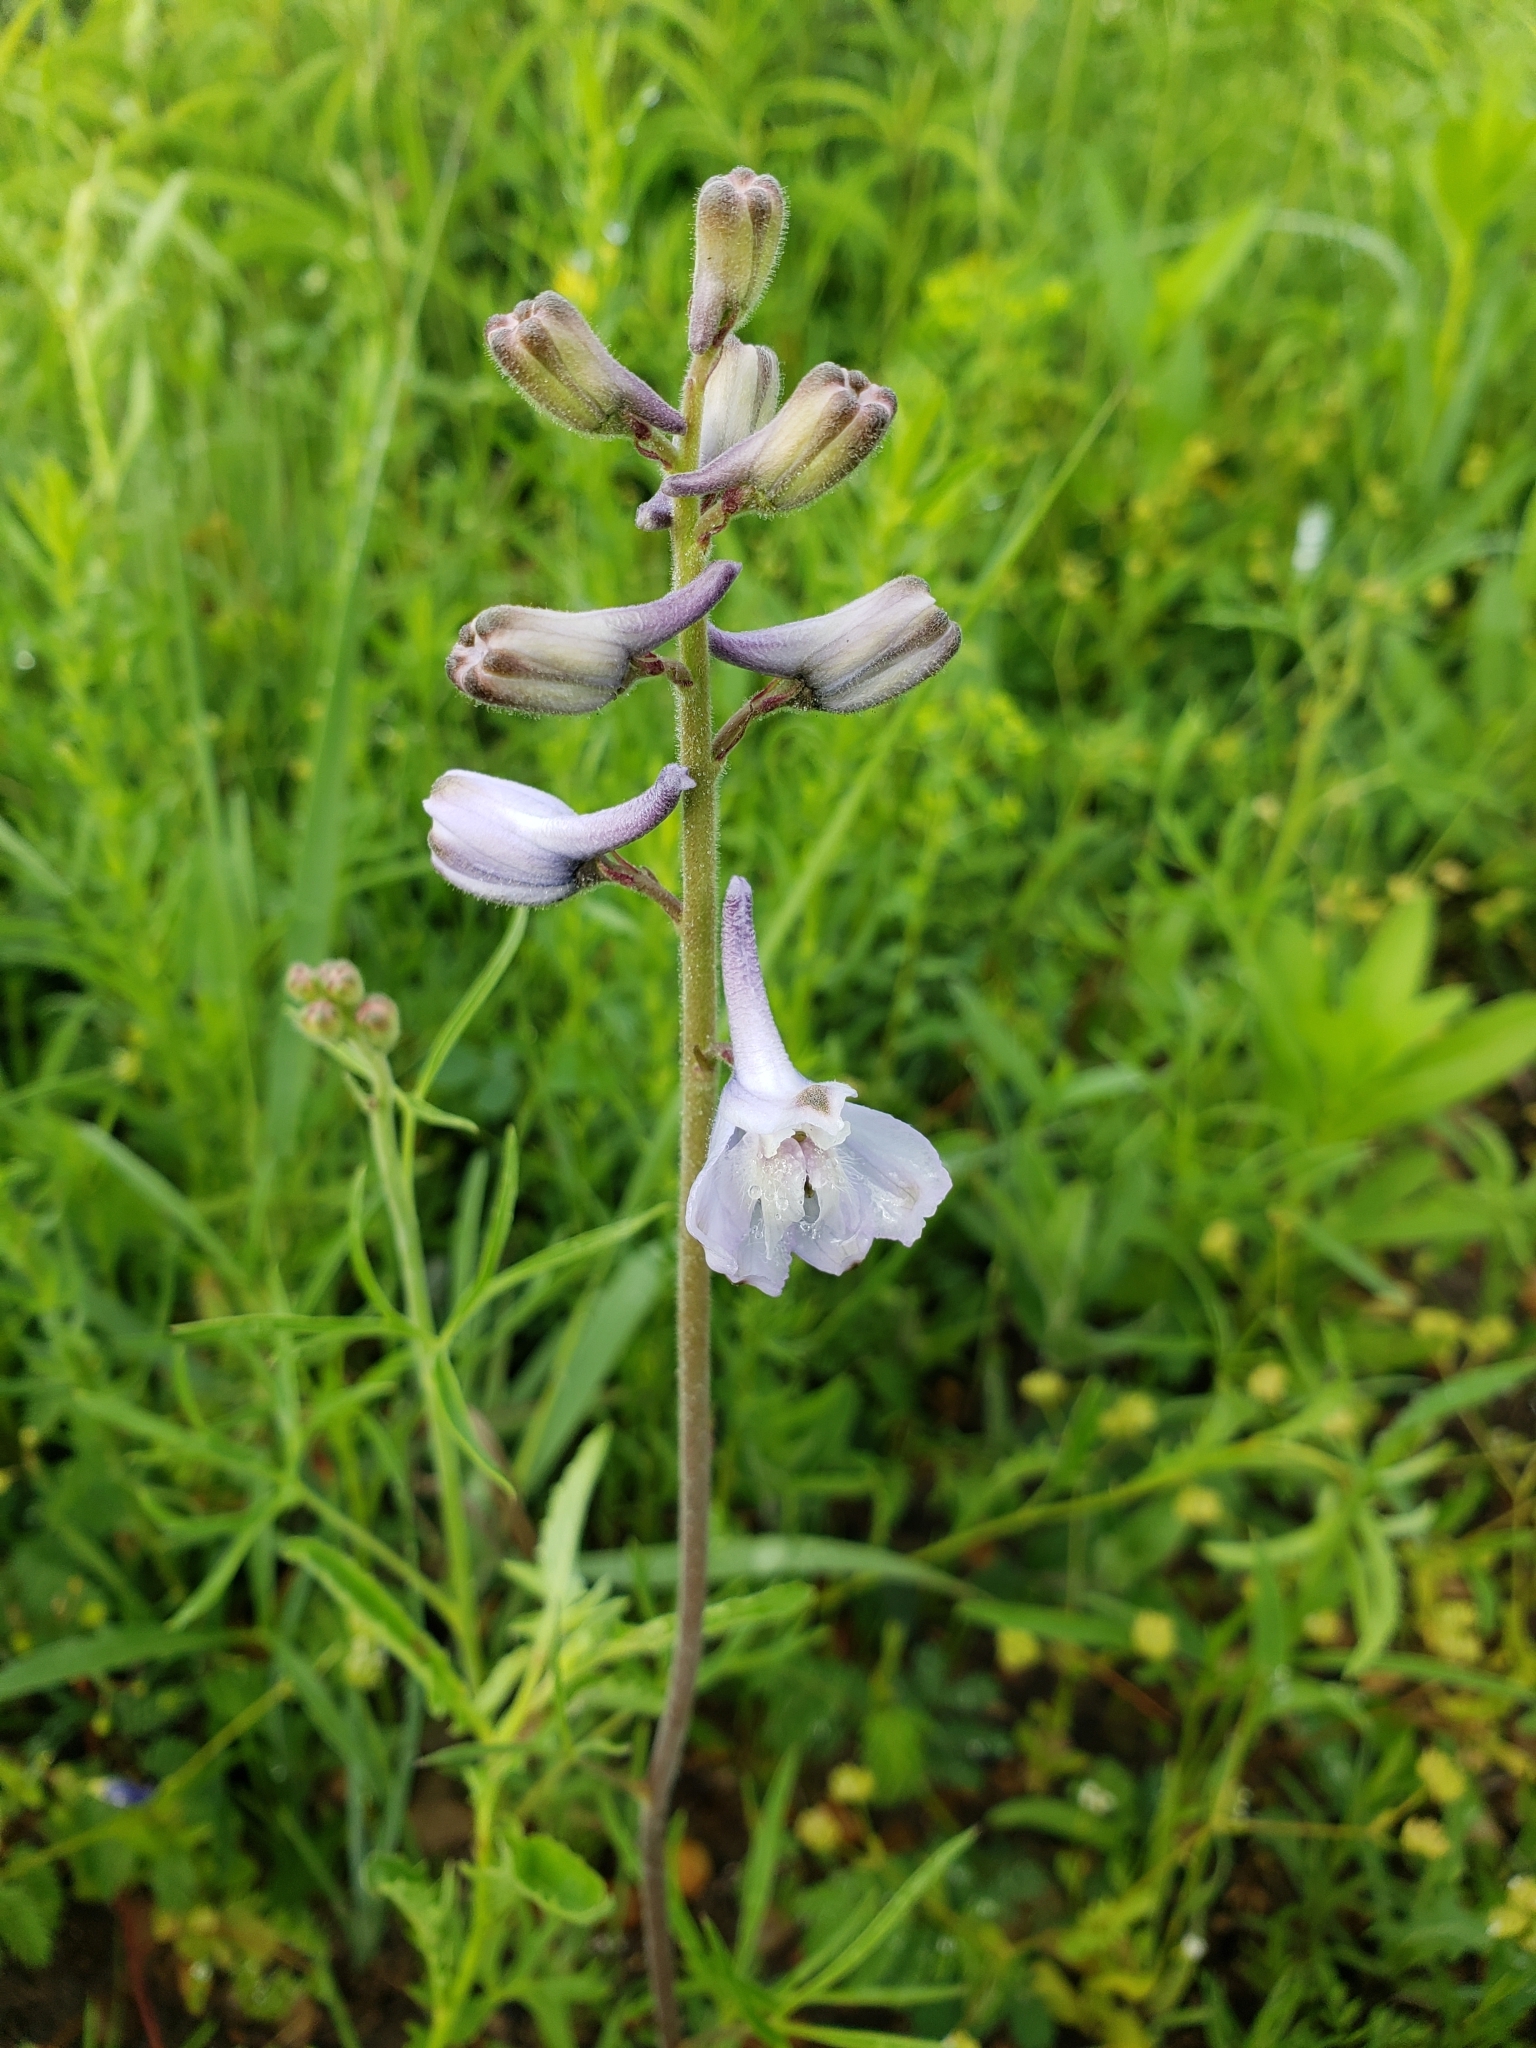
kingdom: Plantae
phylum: Tracheophyta
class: Magnoliopsida
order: Ranunculales
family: Ranunculaceae
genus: Delphinium
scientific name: Delphinium carolinianum
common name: Carolina larkspur
